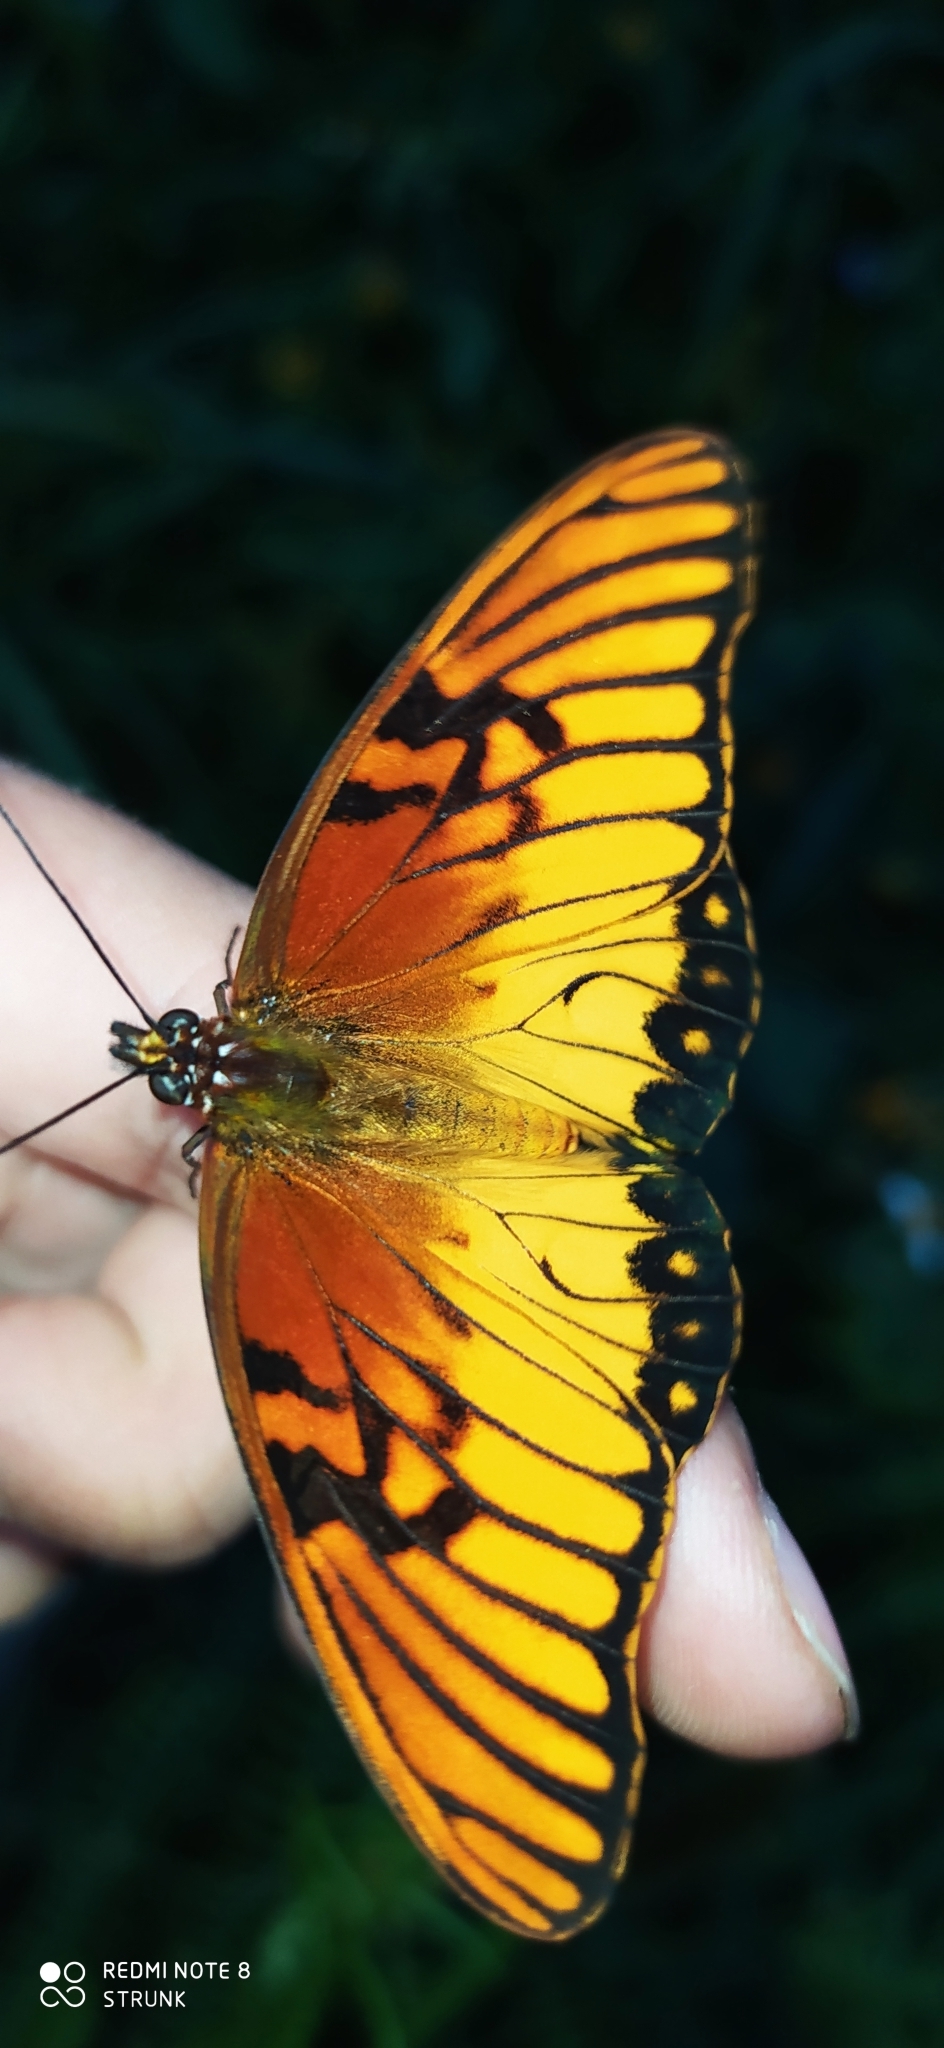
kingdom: Animalia
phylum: Arthropoda
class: Insecta
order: Lepidoptera
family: Nymphalidae
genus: Dione
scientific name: Dione moneta
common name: Mexican silverspot
